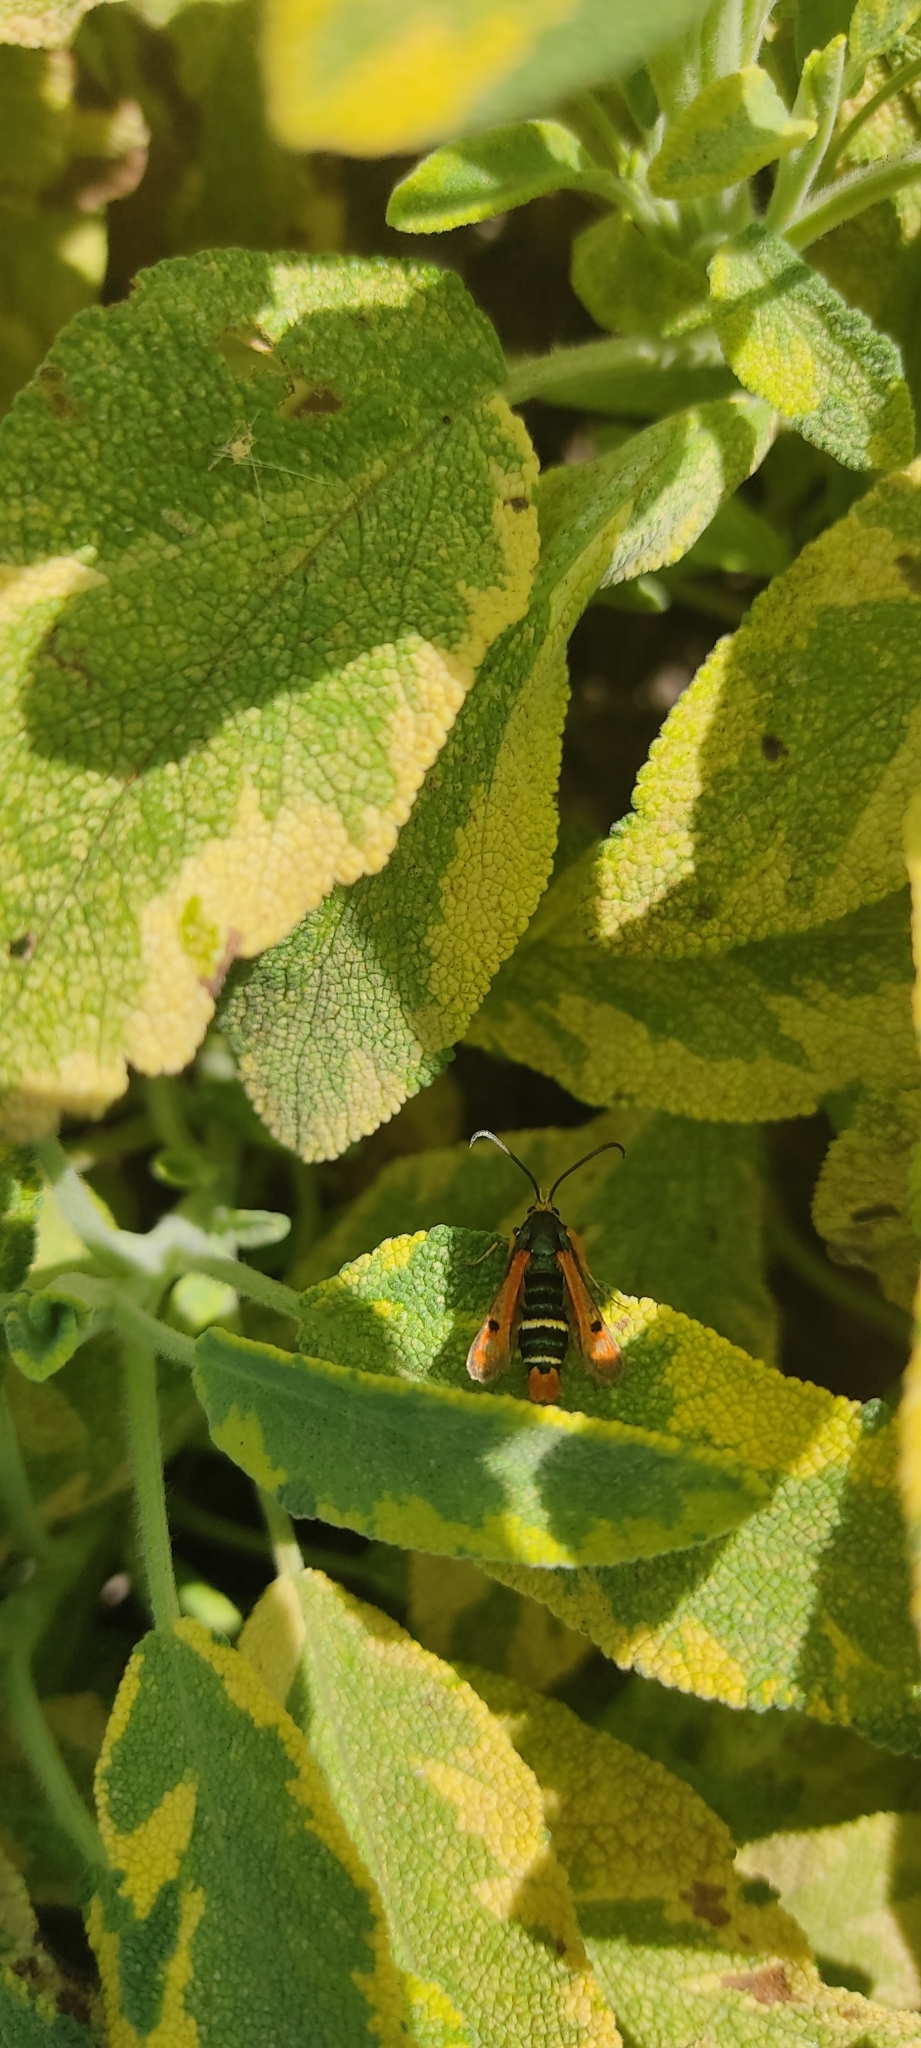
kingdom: Animalia
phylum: Arthropoda
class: Insecta
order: Lepidoptera
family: Sesiidae
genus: Pyropteron
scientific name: Pyropteron chrysidiforme
